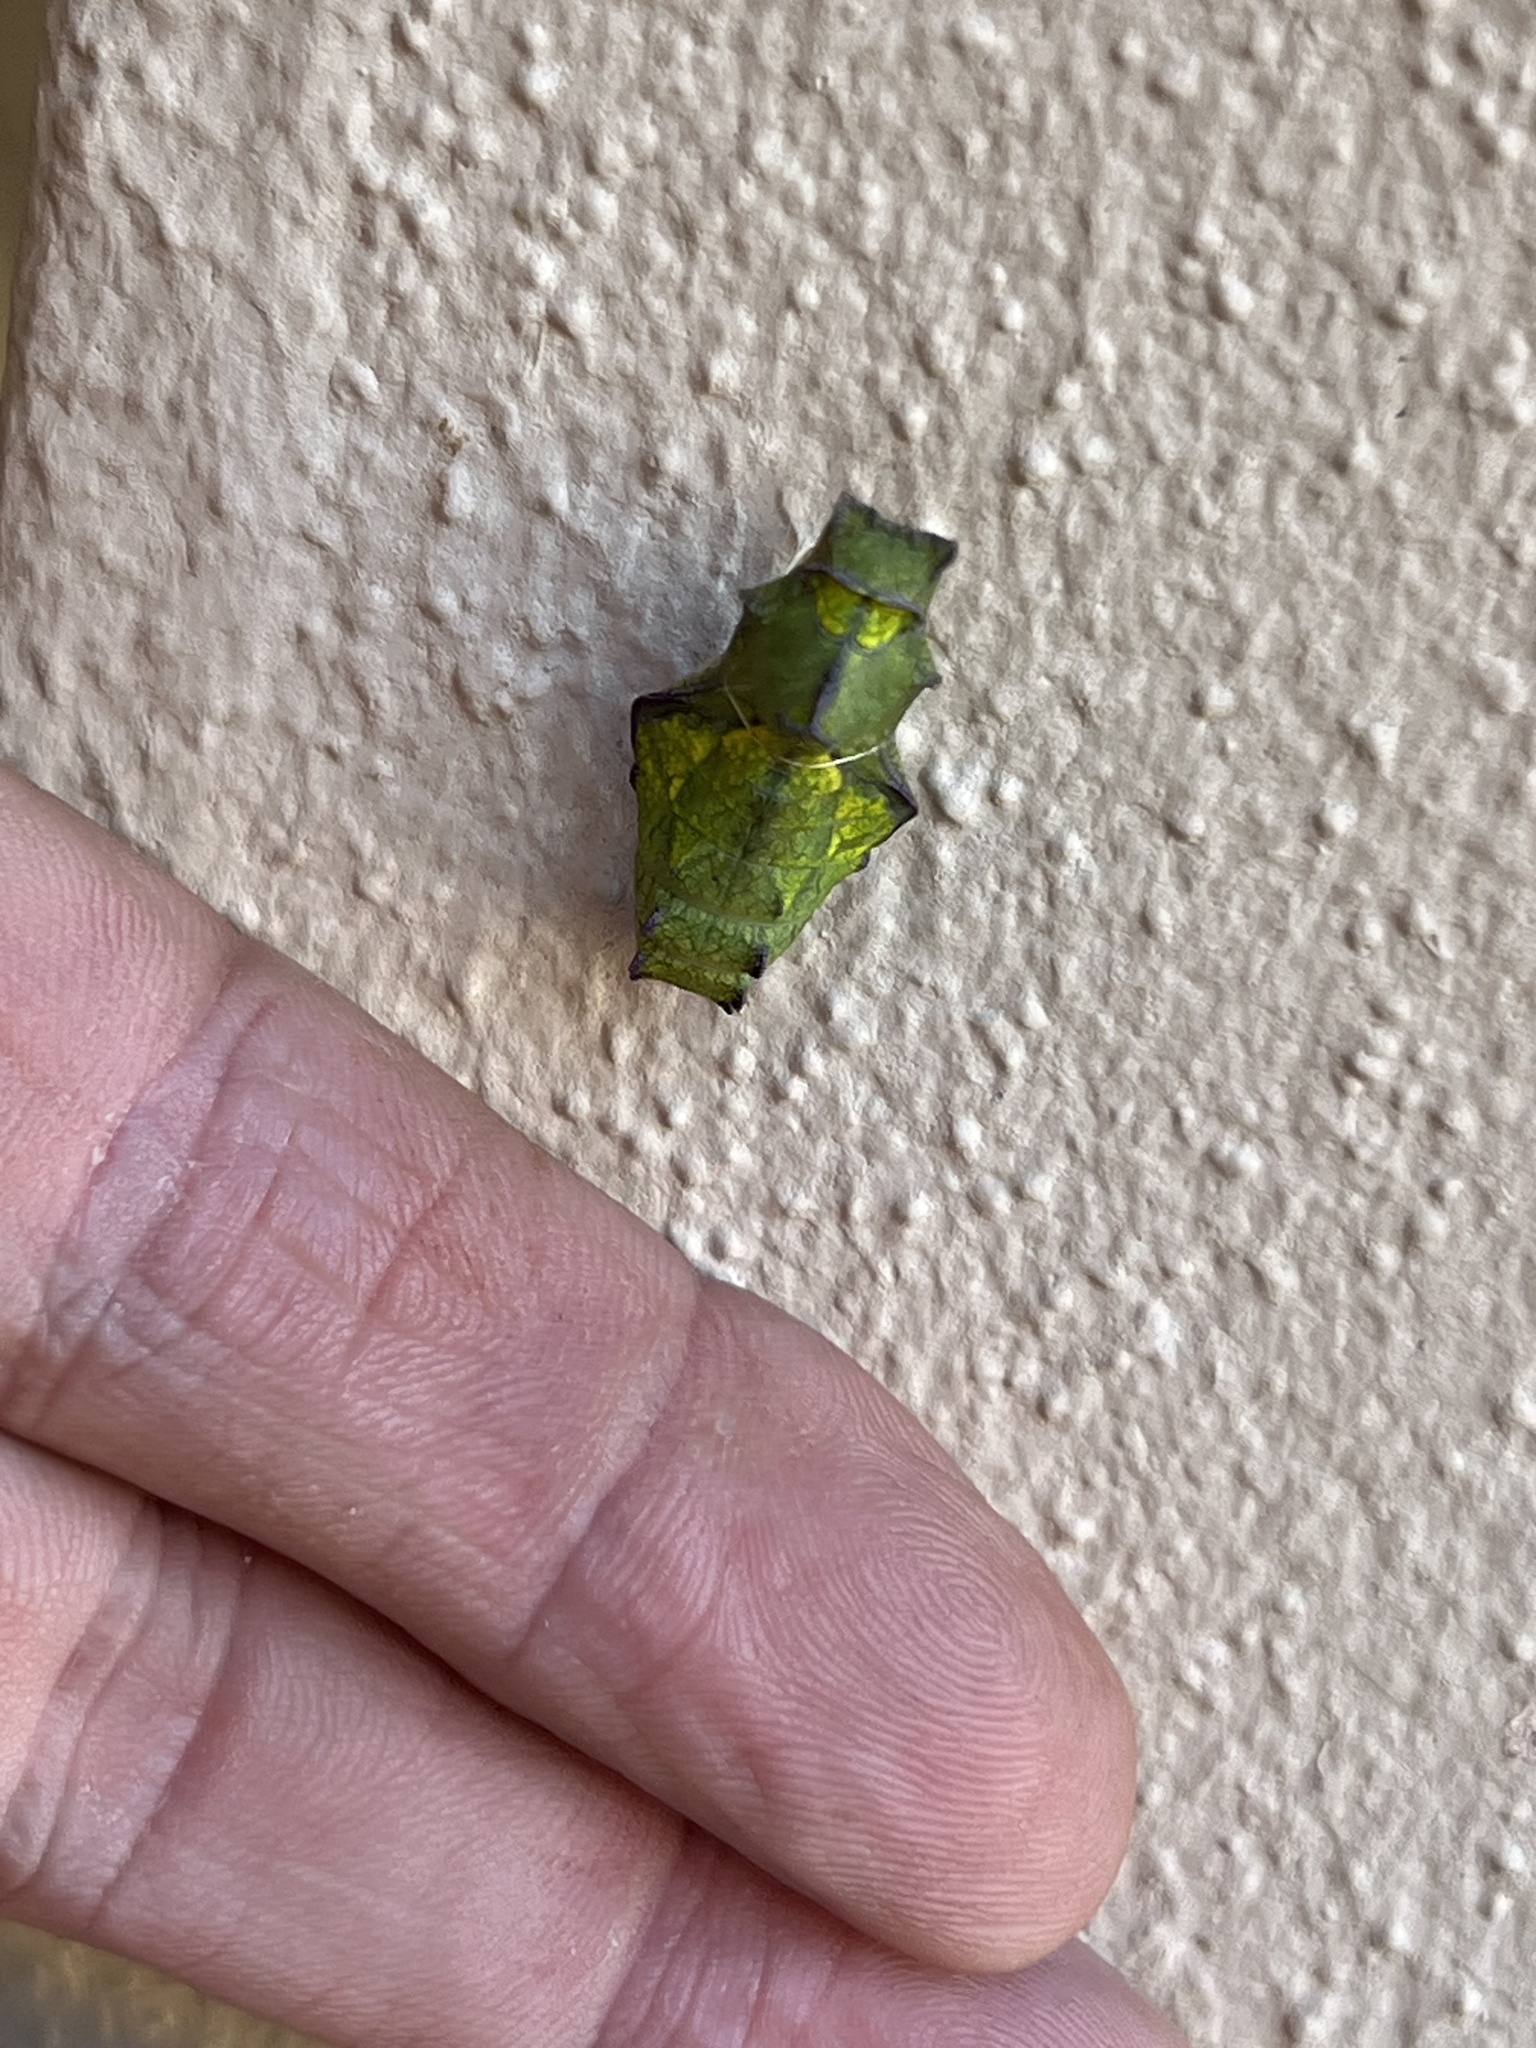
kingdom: Animalia
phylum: Arthropoda
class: Insecta
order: Lepidoptera
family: Papilionidae
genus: Battus
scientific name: Battus philenor
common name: Pipevine swallowtail
